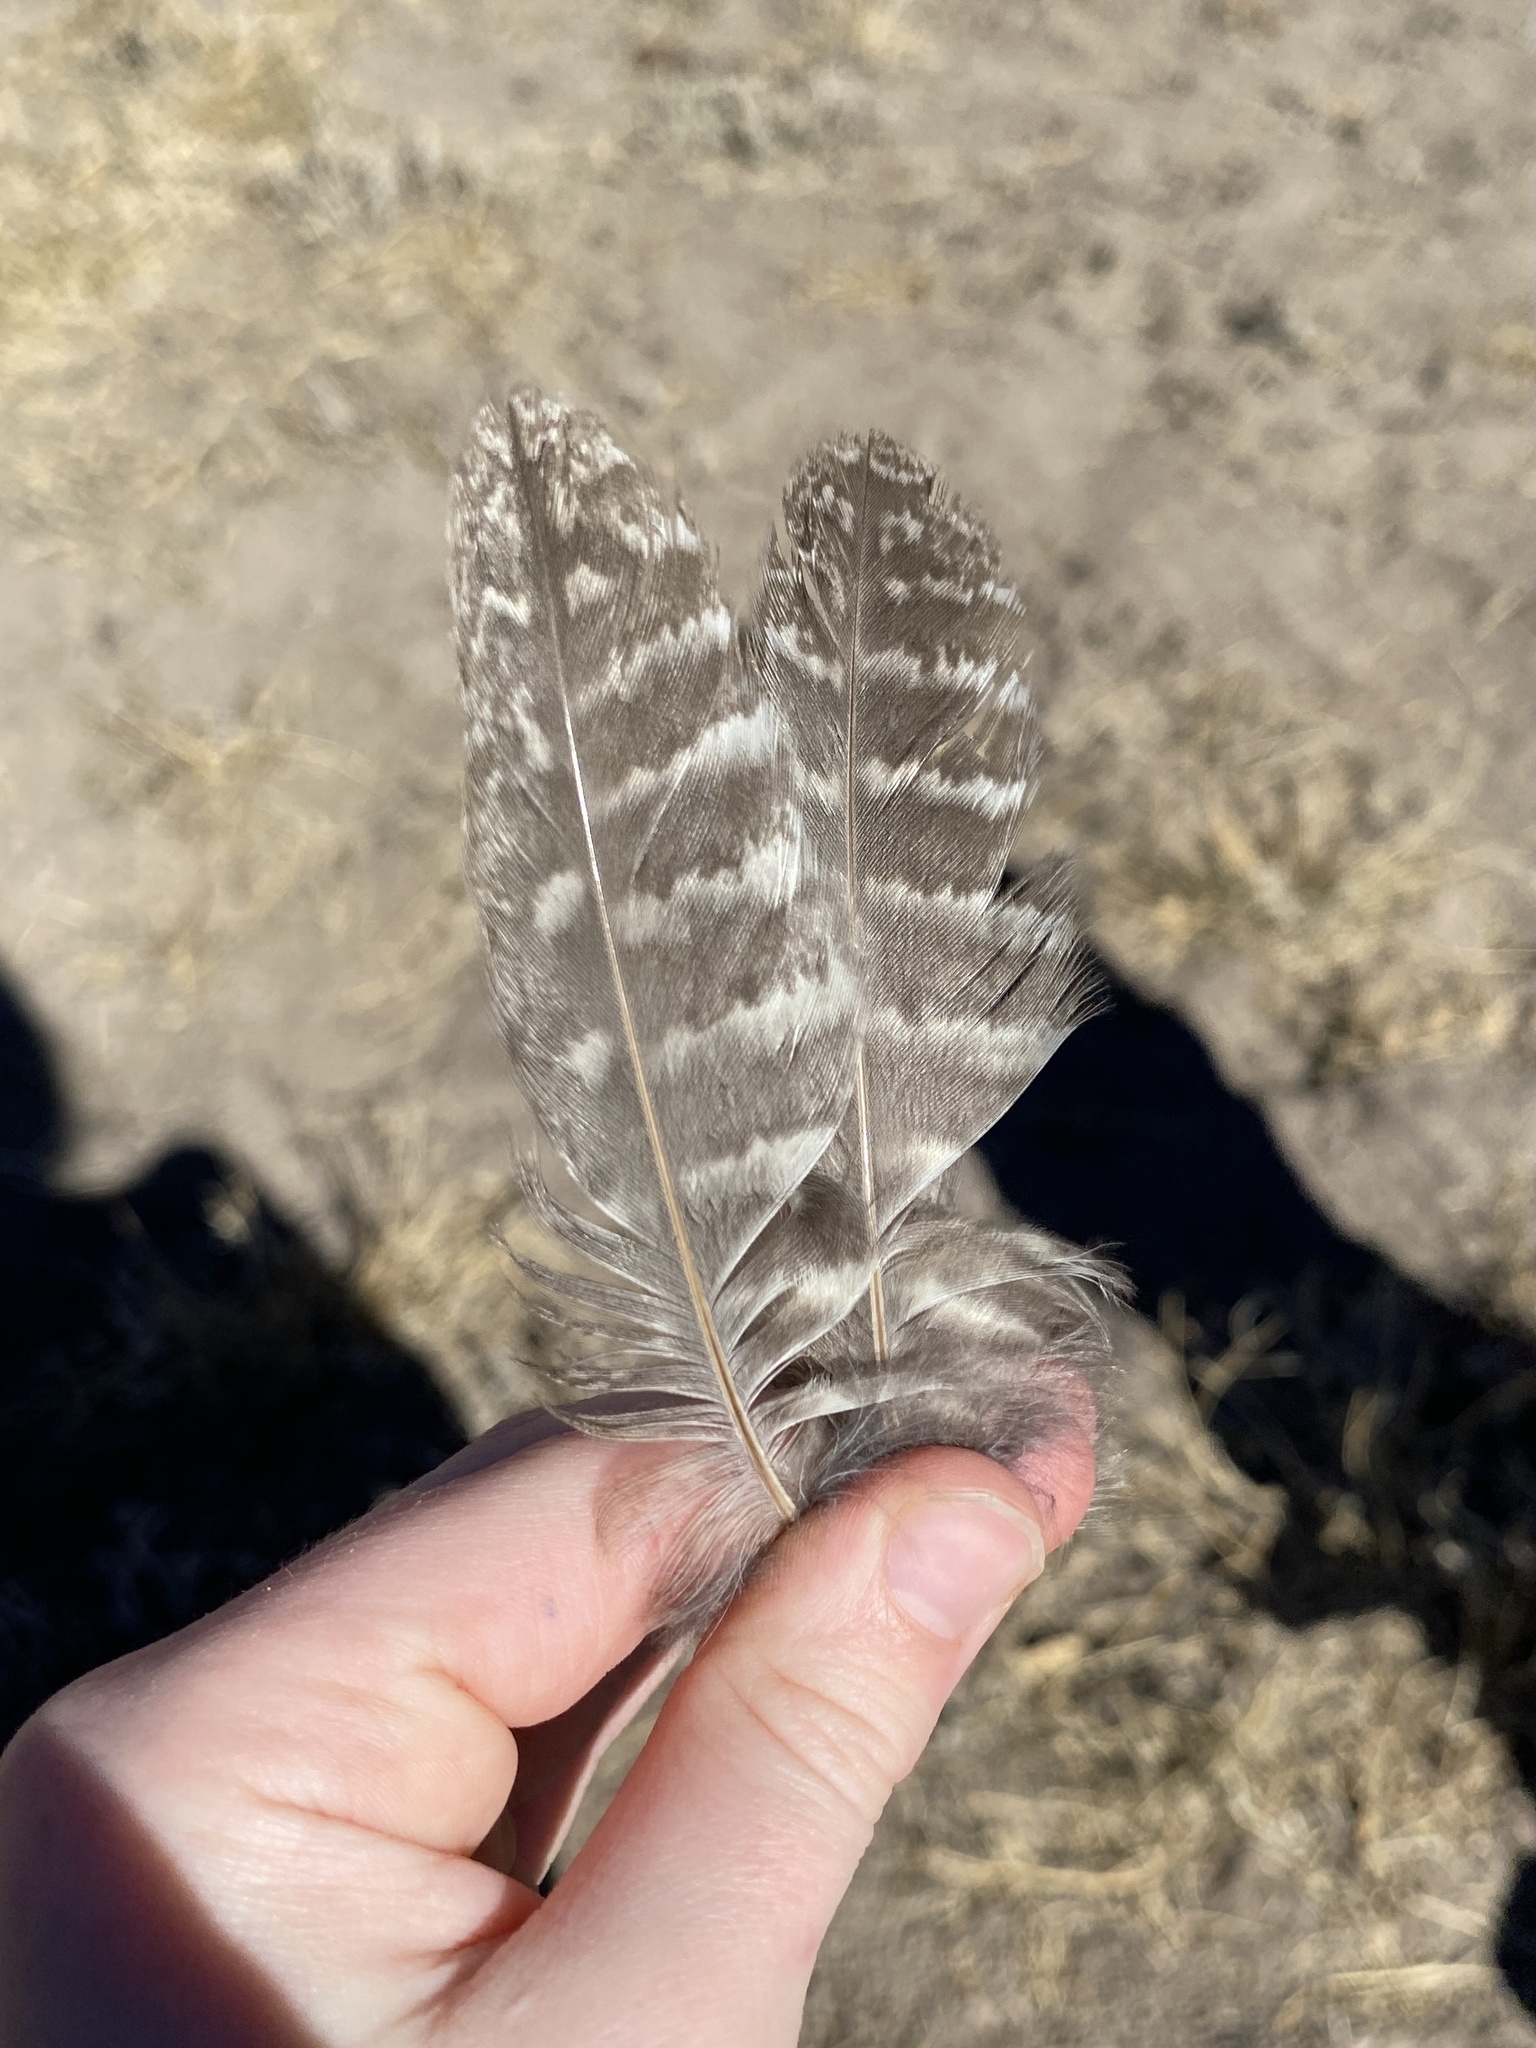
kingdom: Animalia
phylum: Chordata
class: Aves
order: Strigiformes
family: Strigidae
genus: Megascops
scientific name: Megascops kennicottii
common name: Western screech-owl
